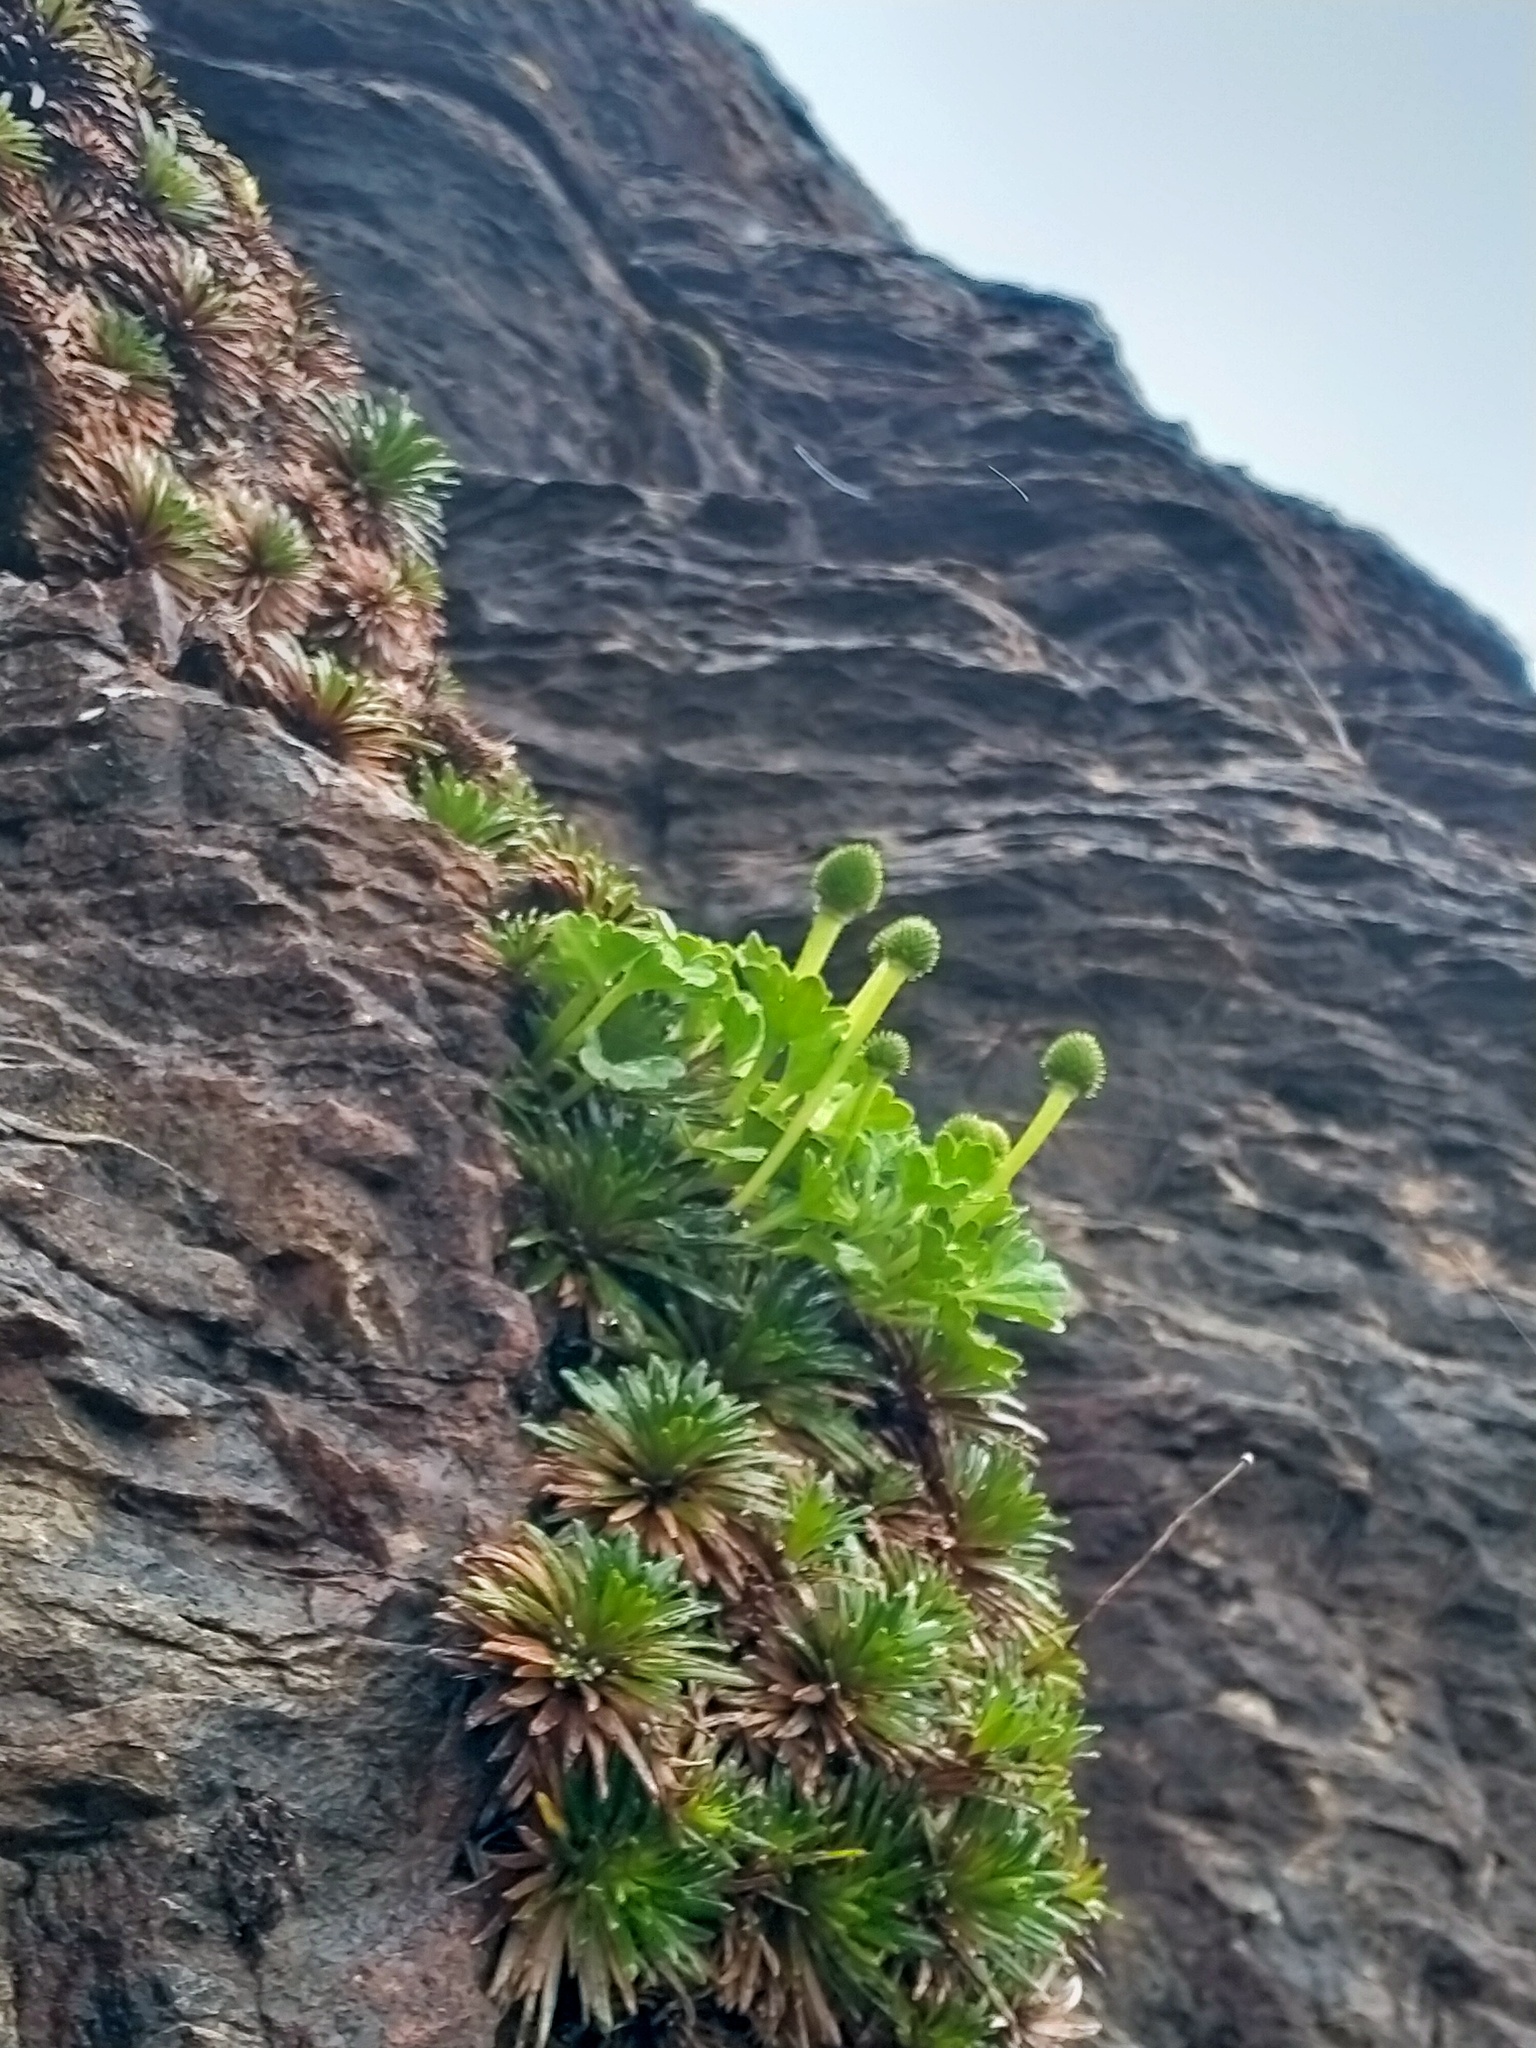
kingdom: Plantae
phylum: Tracheophyta
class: Magnoliopsida
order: Ranunculales
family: Ranunculaceae
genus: Ranunculus
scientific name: Ranunculus pinguis
